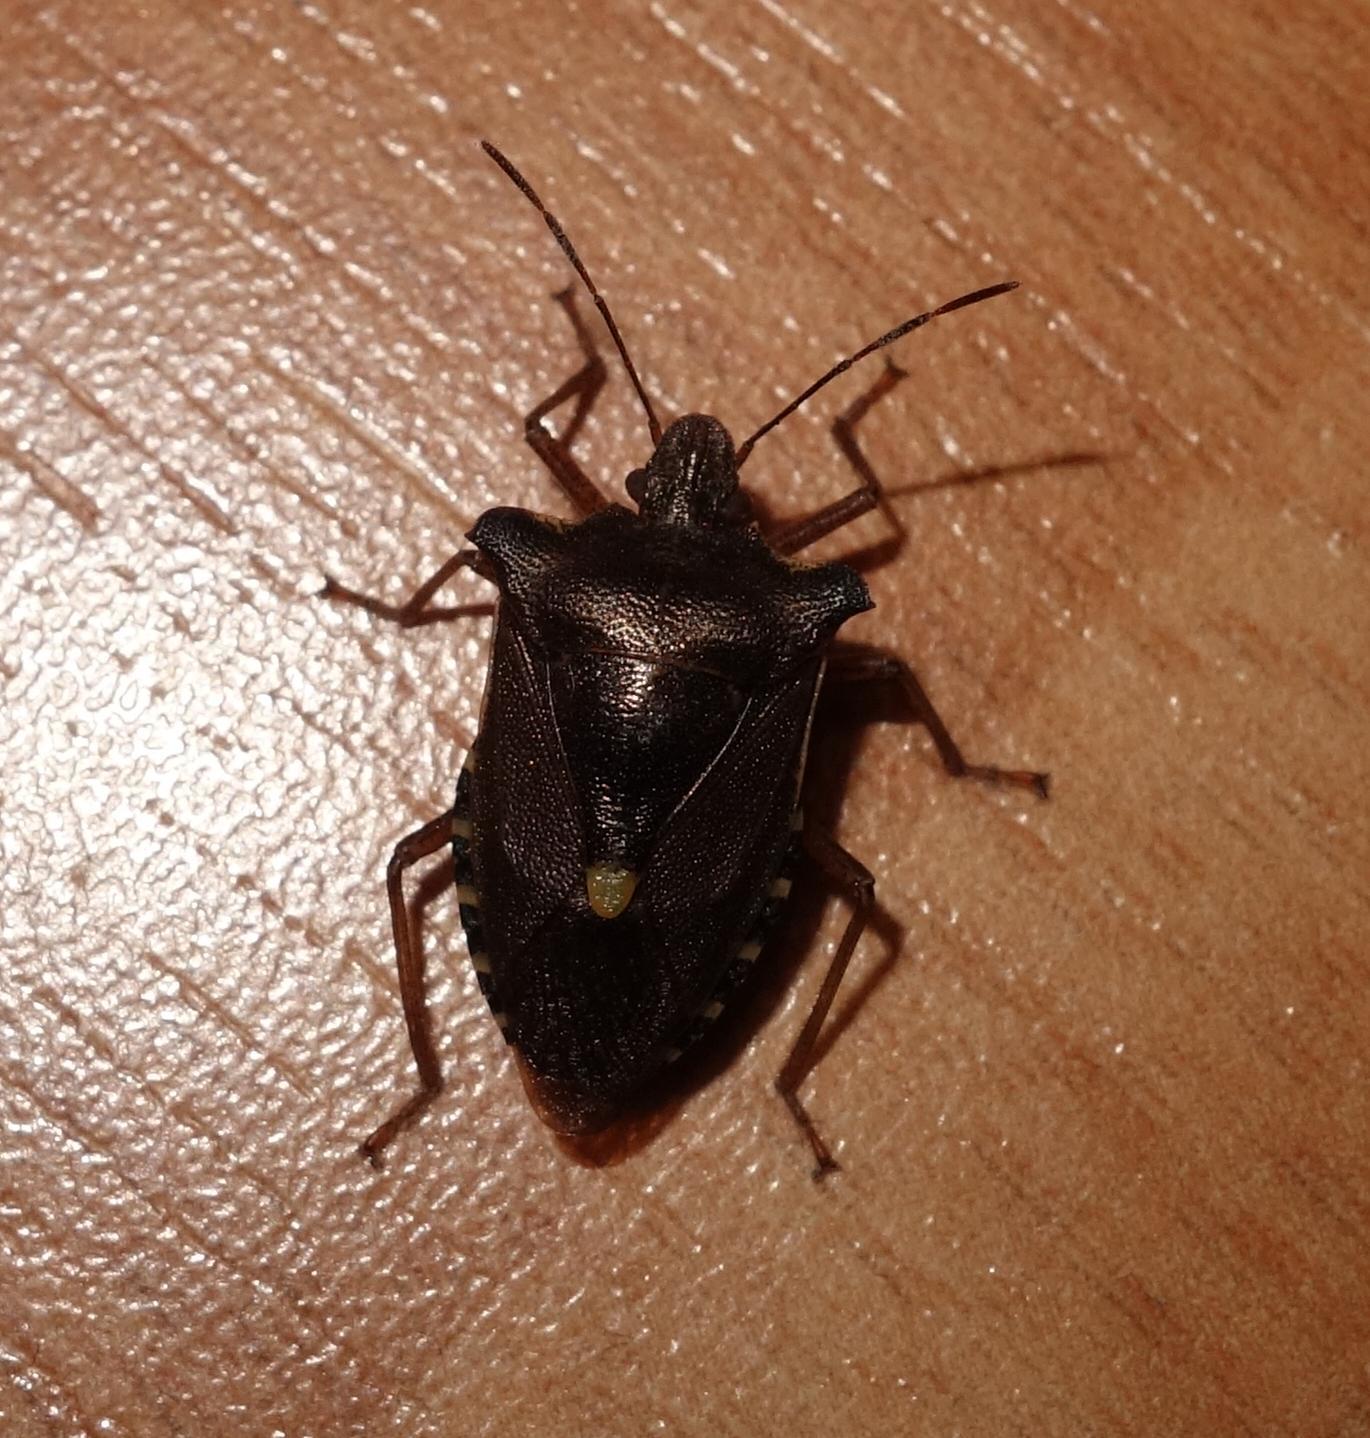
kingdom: Animalia
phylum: Arthropoda
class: Insecta
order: Hemiptera
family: Pentatomidae
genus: Pentatoma
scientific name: Pentatoma rufipes
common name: Forest bug
